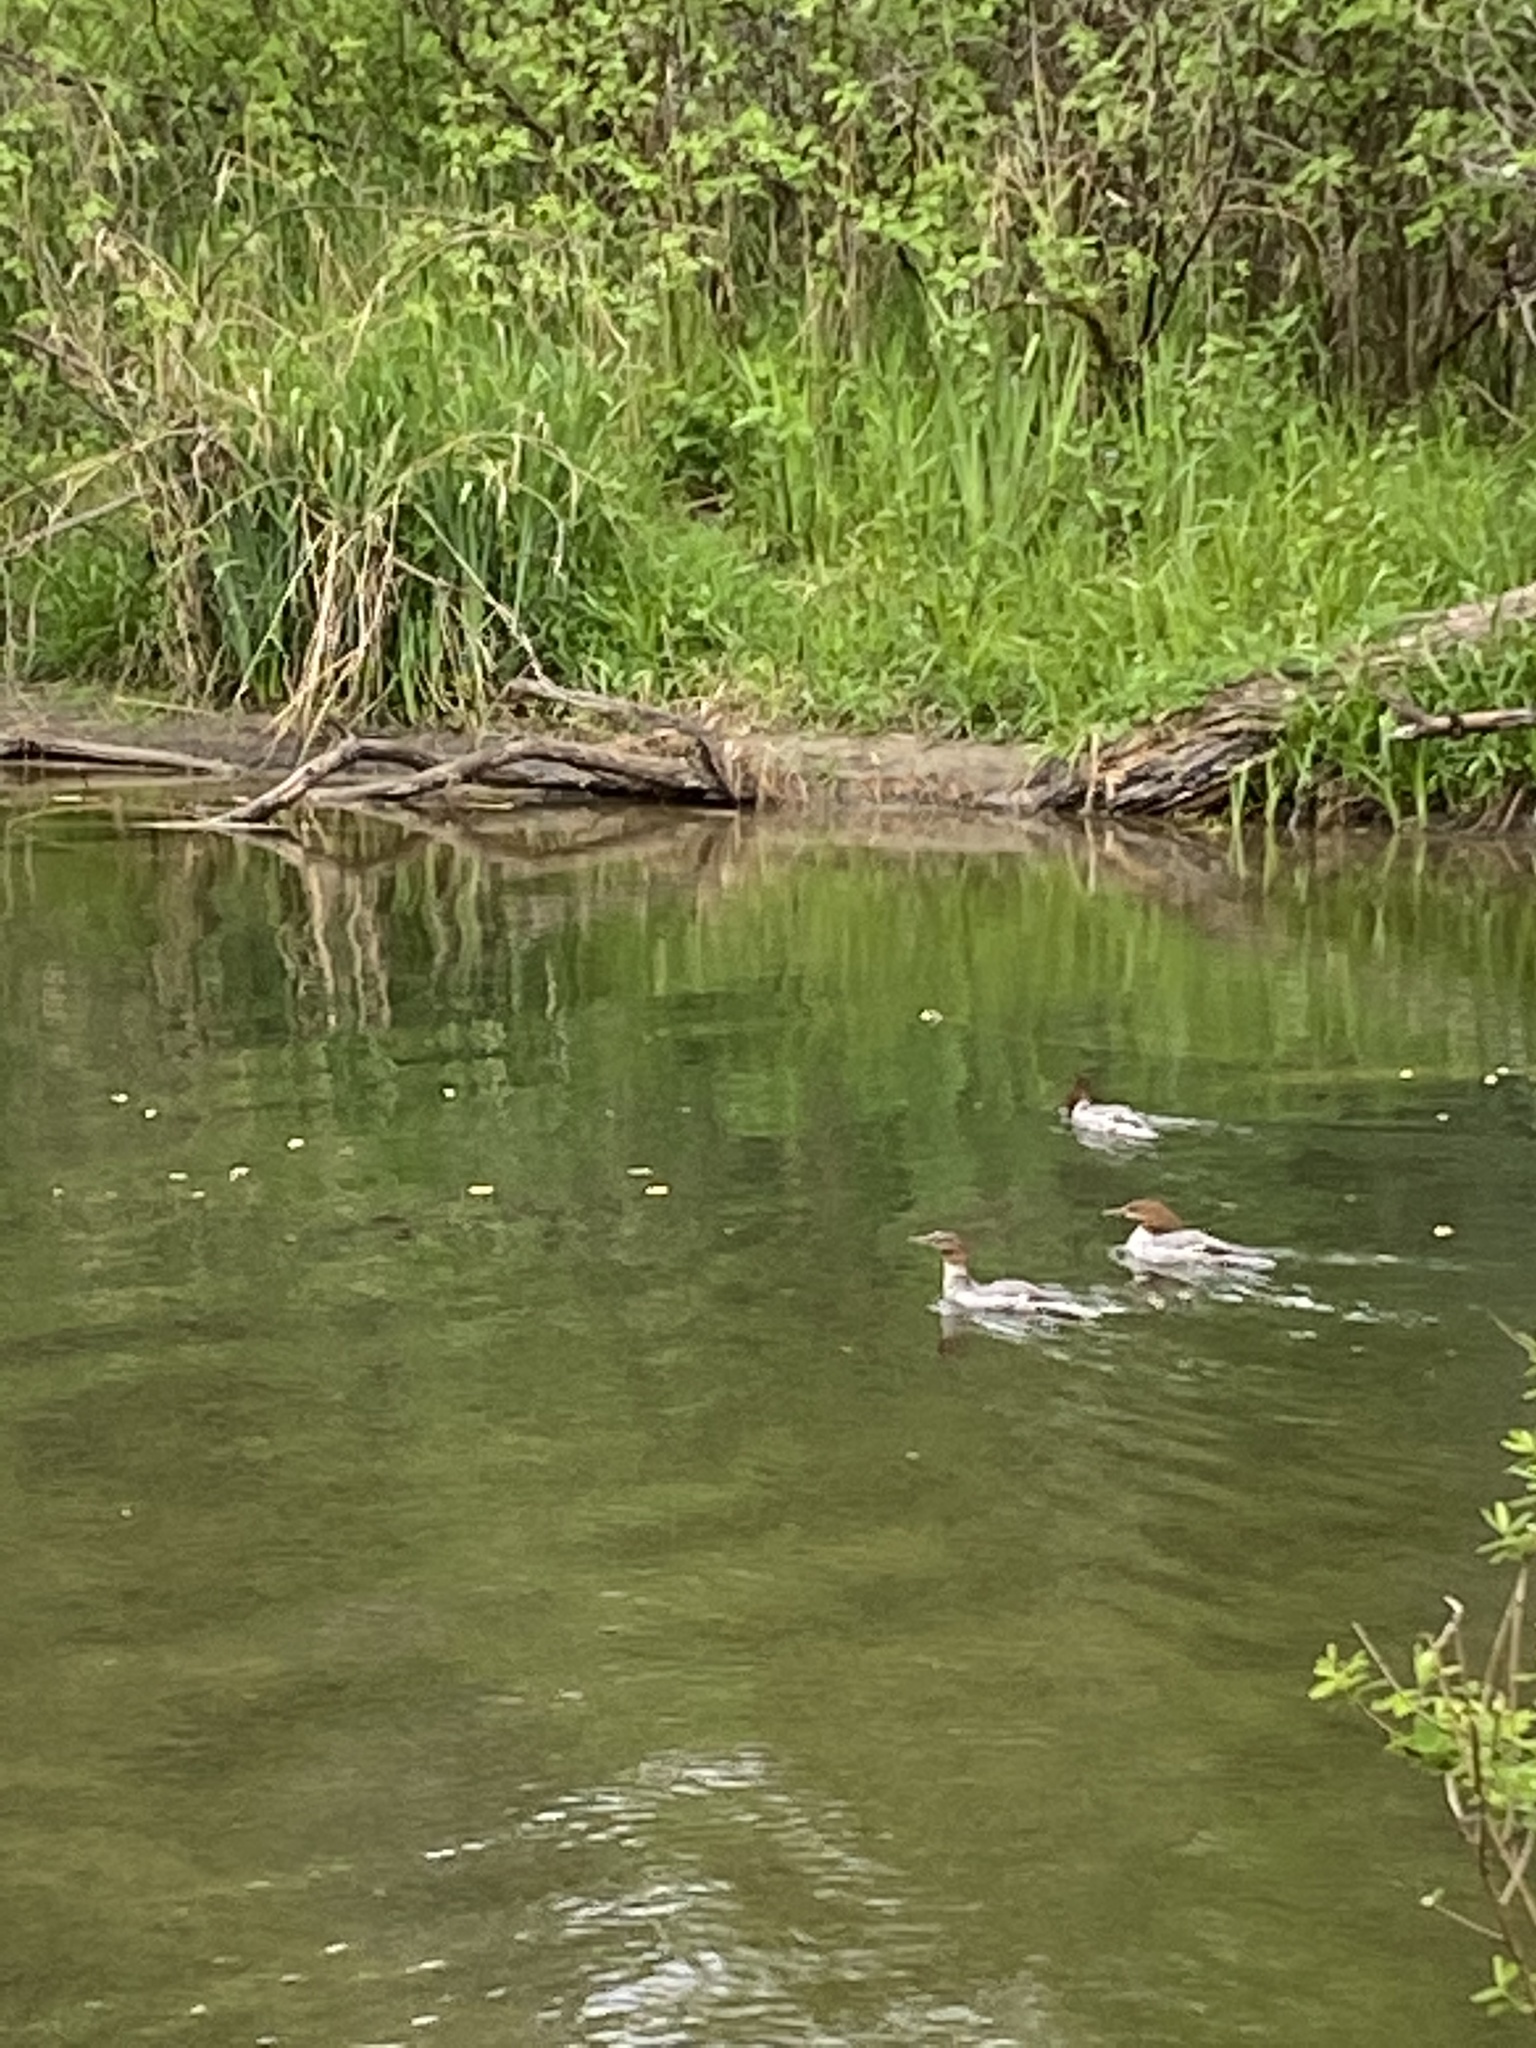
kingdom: Animalia
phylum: Chordata
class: Aves
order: Anseriformes
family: Anatidae
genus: Mergus
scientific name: Mergus merganser
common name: Common merganser
